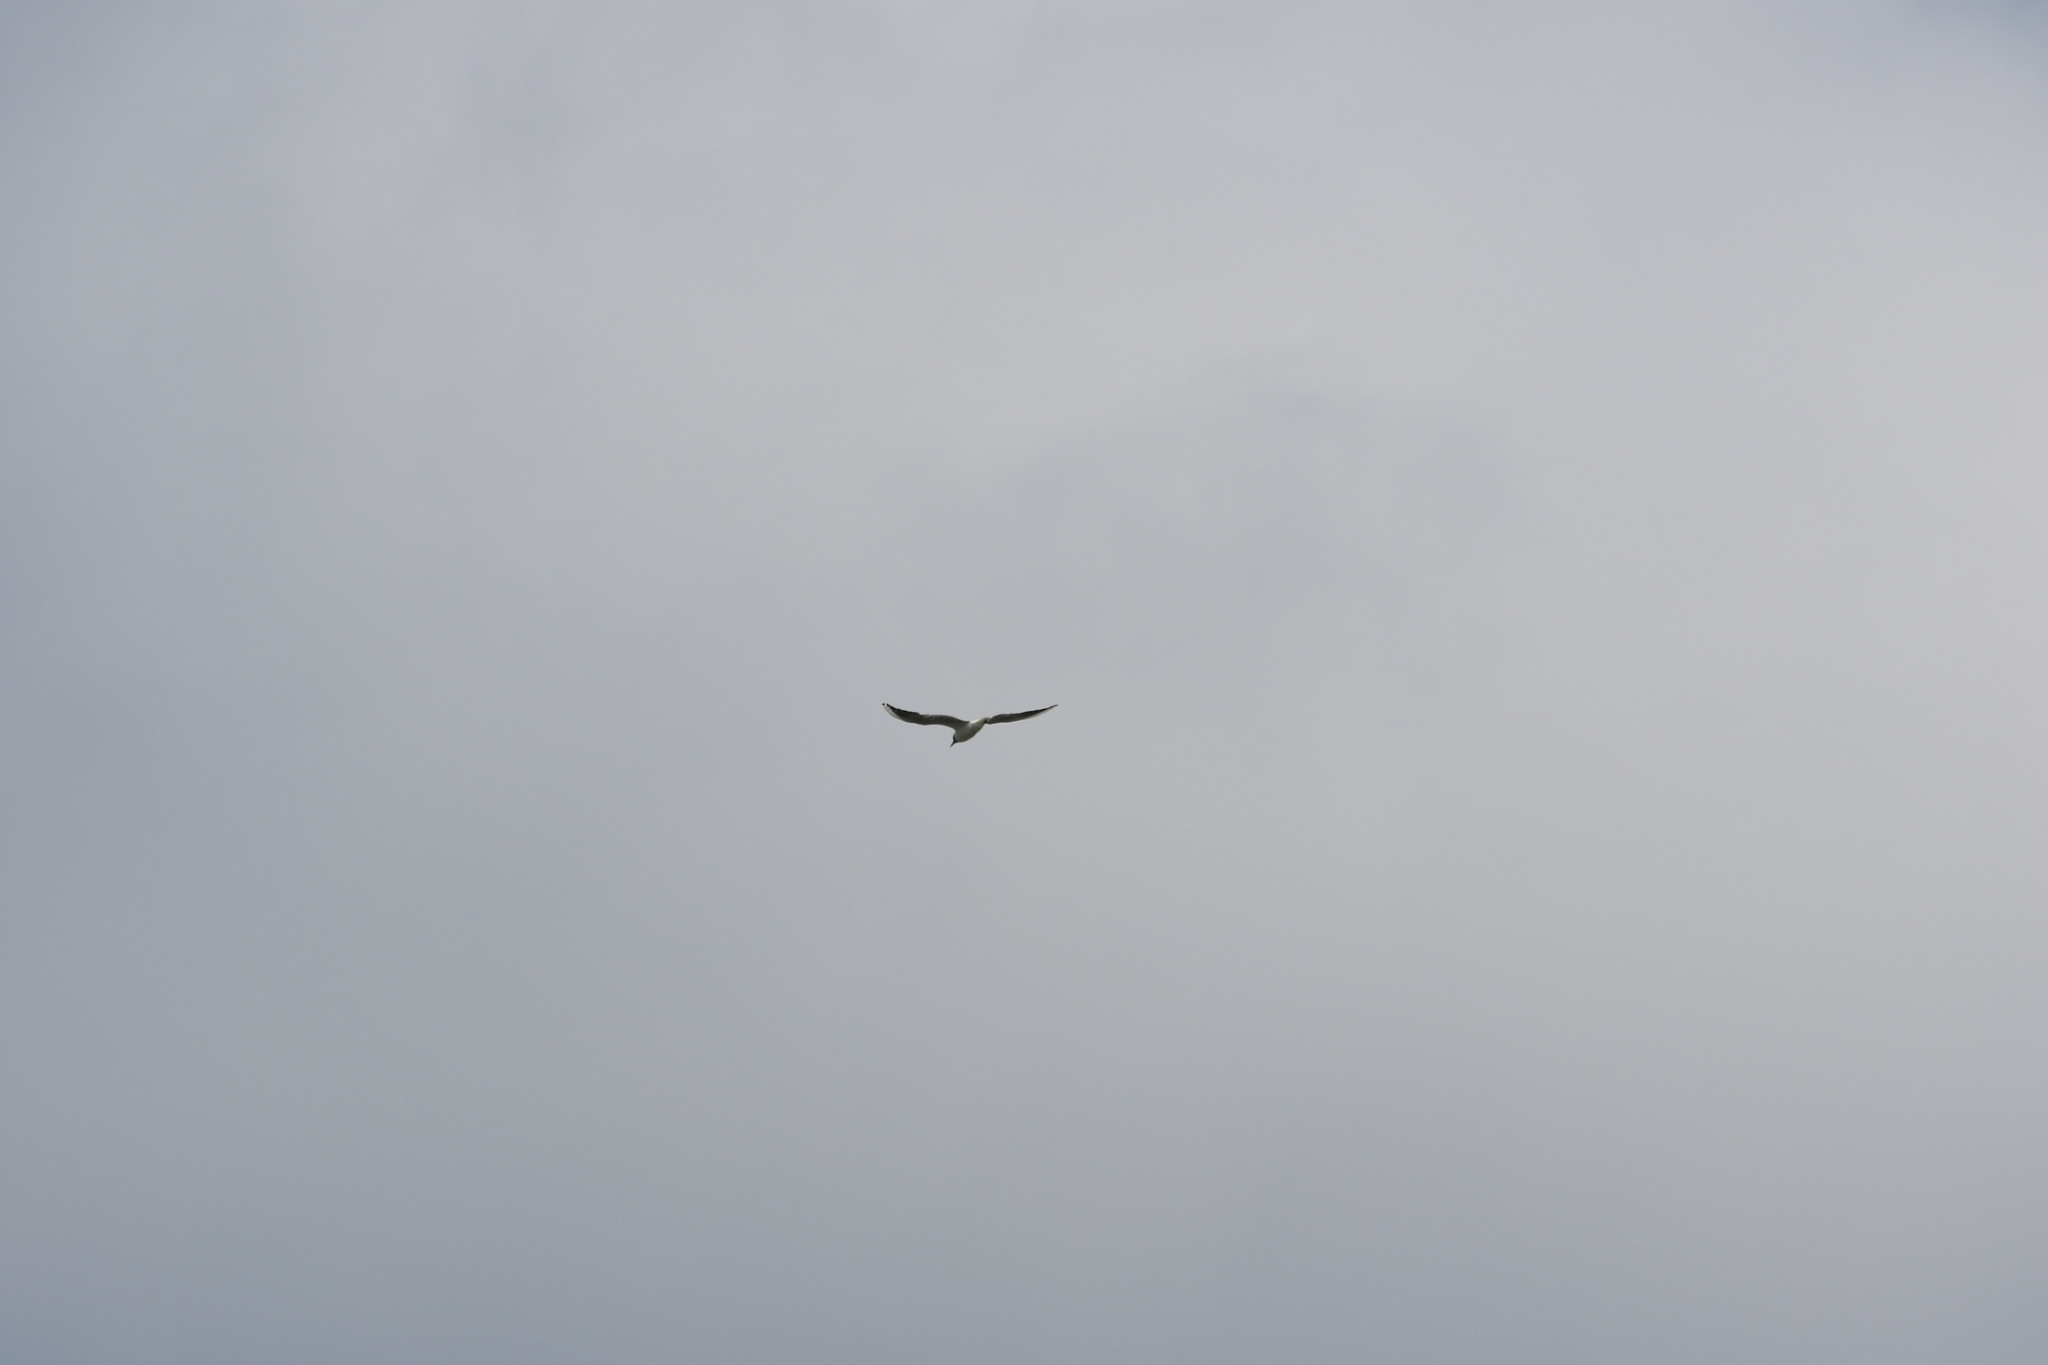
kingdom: Animalia
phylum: Chordata
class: Aves
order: Charadriiformes
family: Laridae
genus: Chroicocephalus
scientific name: Chroicocephalus ridibundus
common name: Black-headed gull
